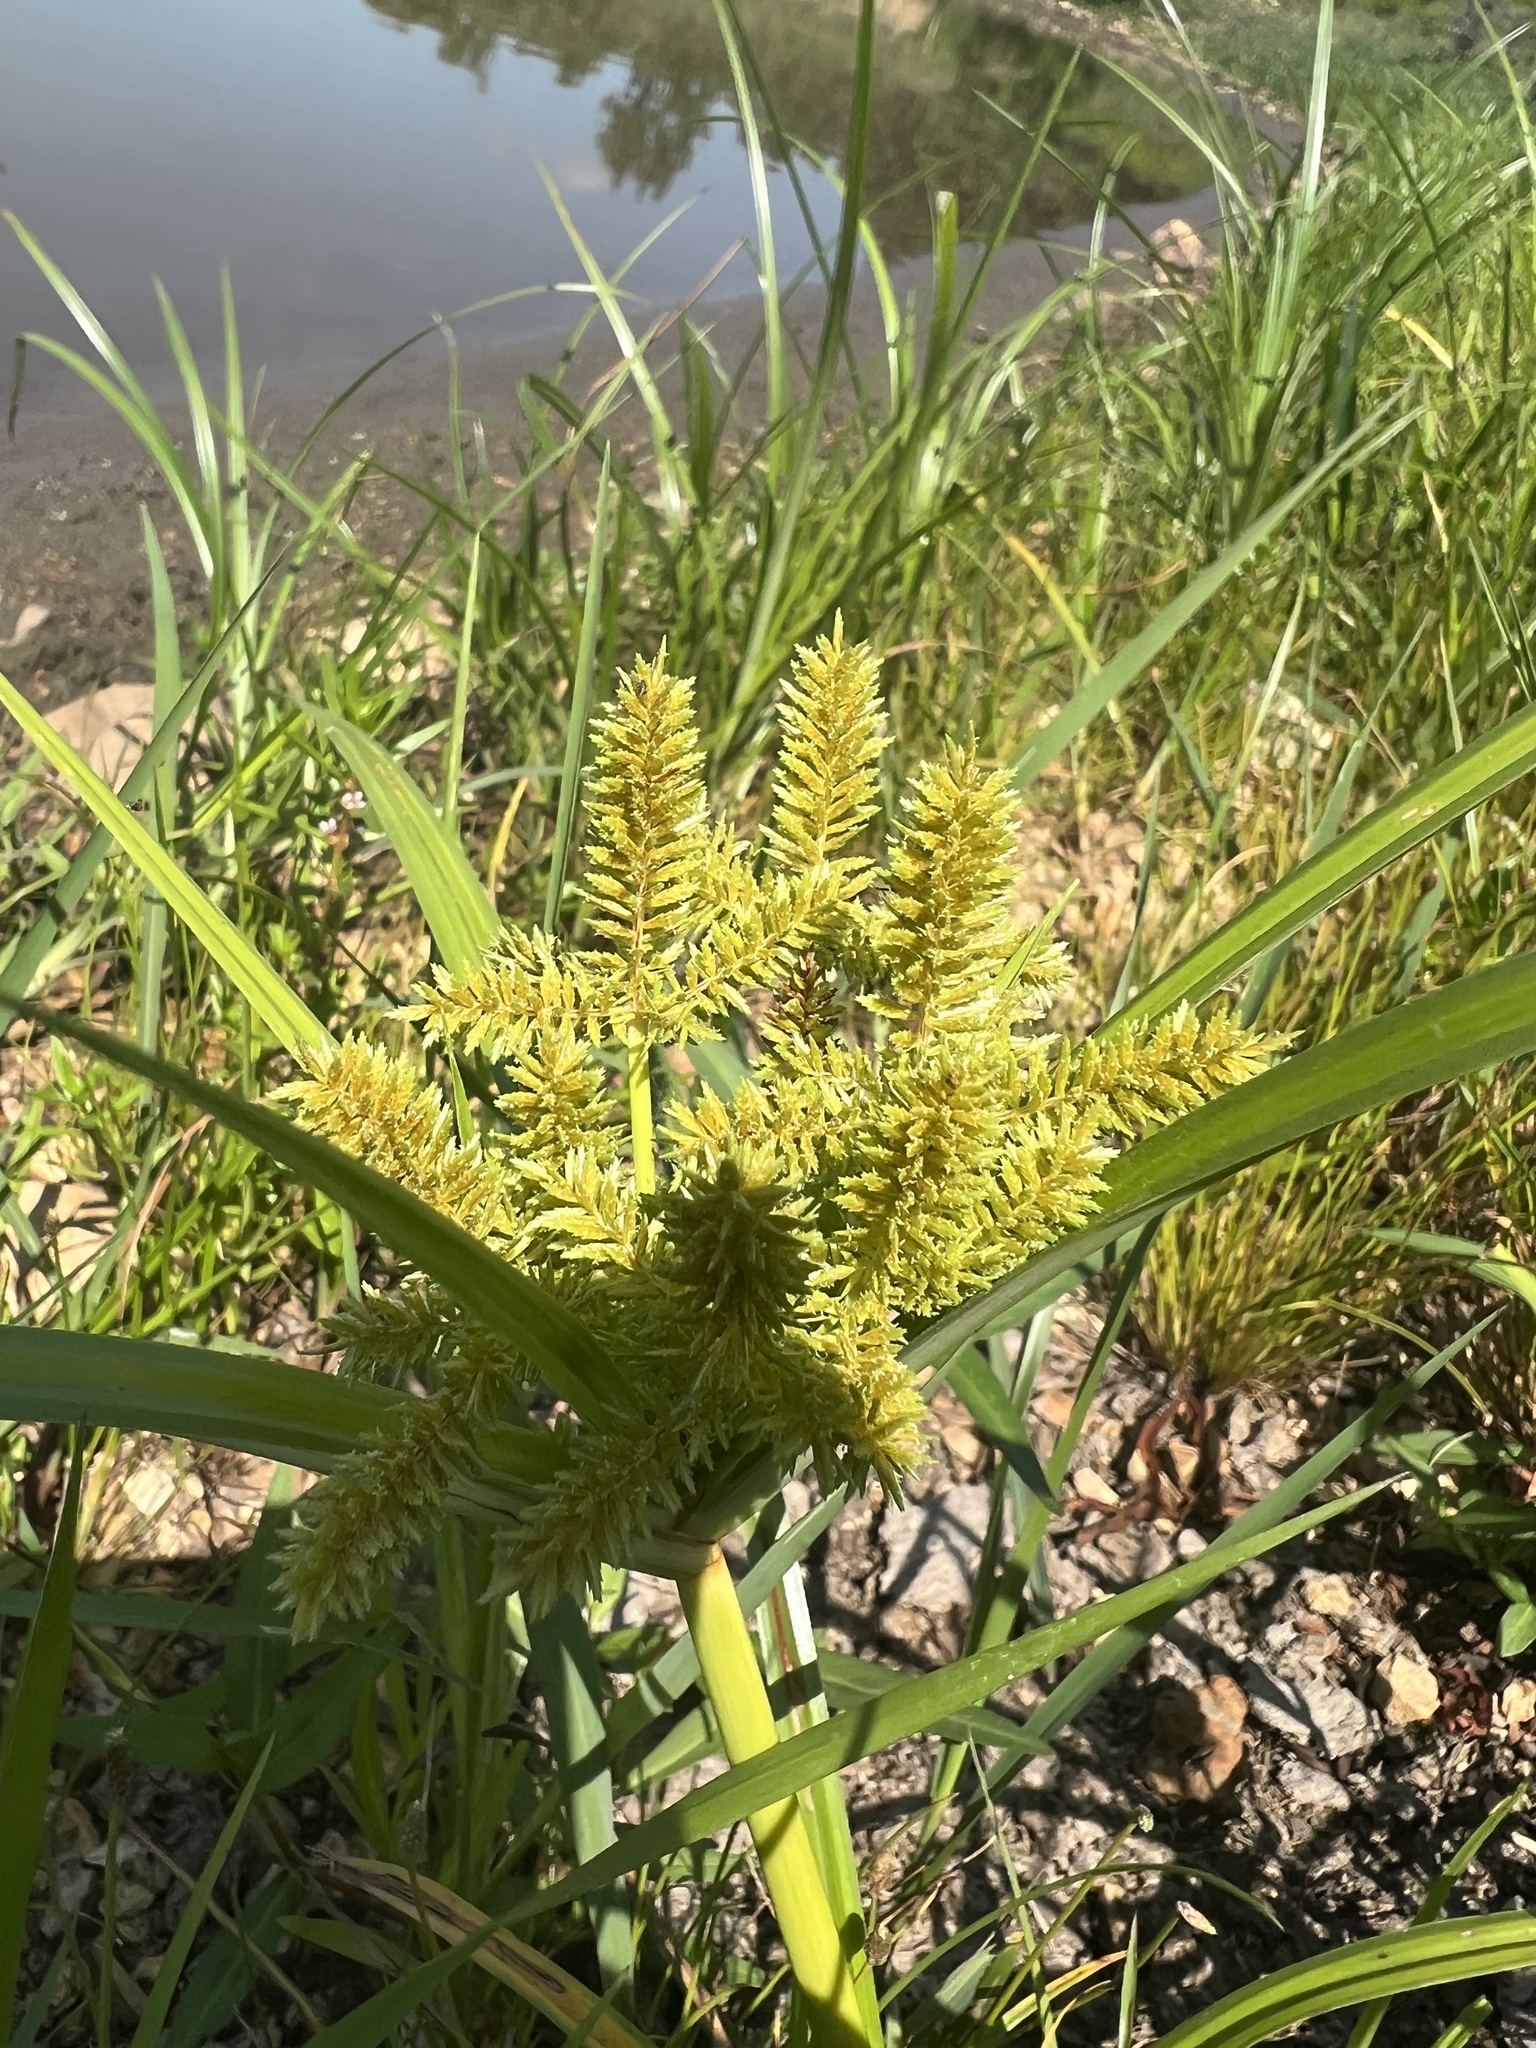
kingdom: Plantae
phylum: Tracheophyta
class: Liliopsida
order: Poales
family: Cyperaceae
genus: Cyperus
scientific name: Cyperus erythrorhizos
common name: Red-root flat sedge
